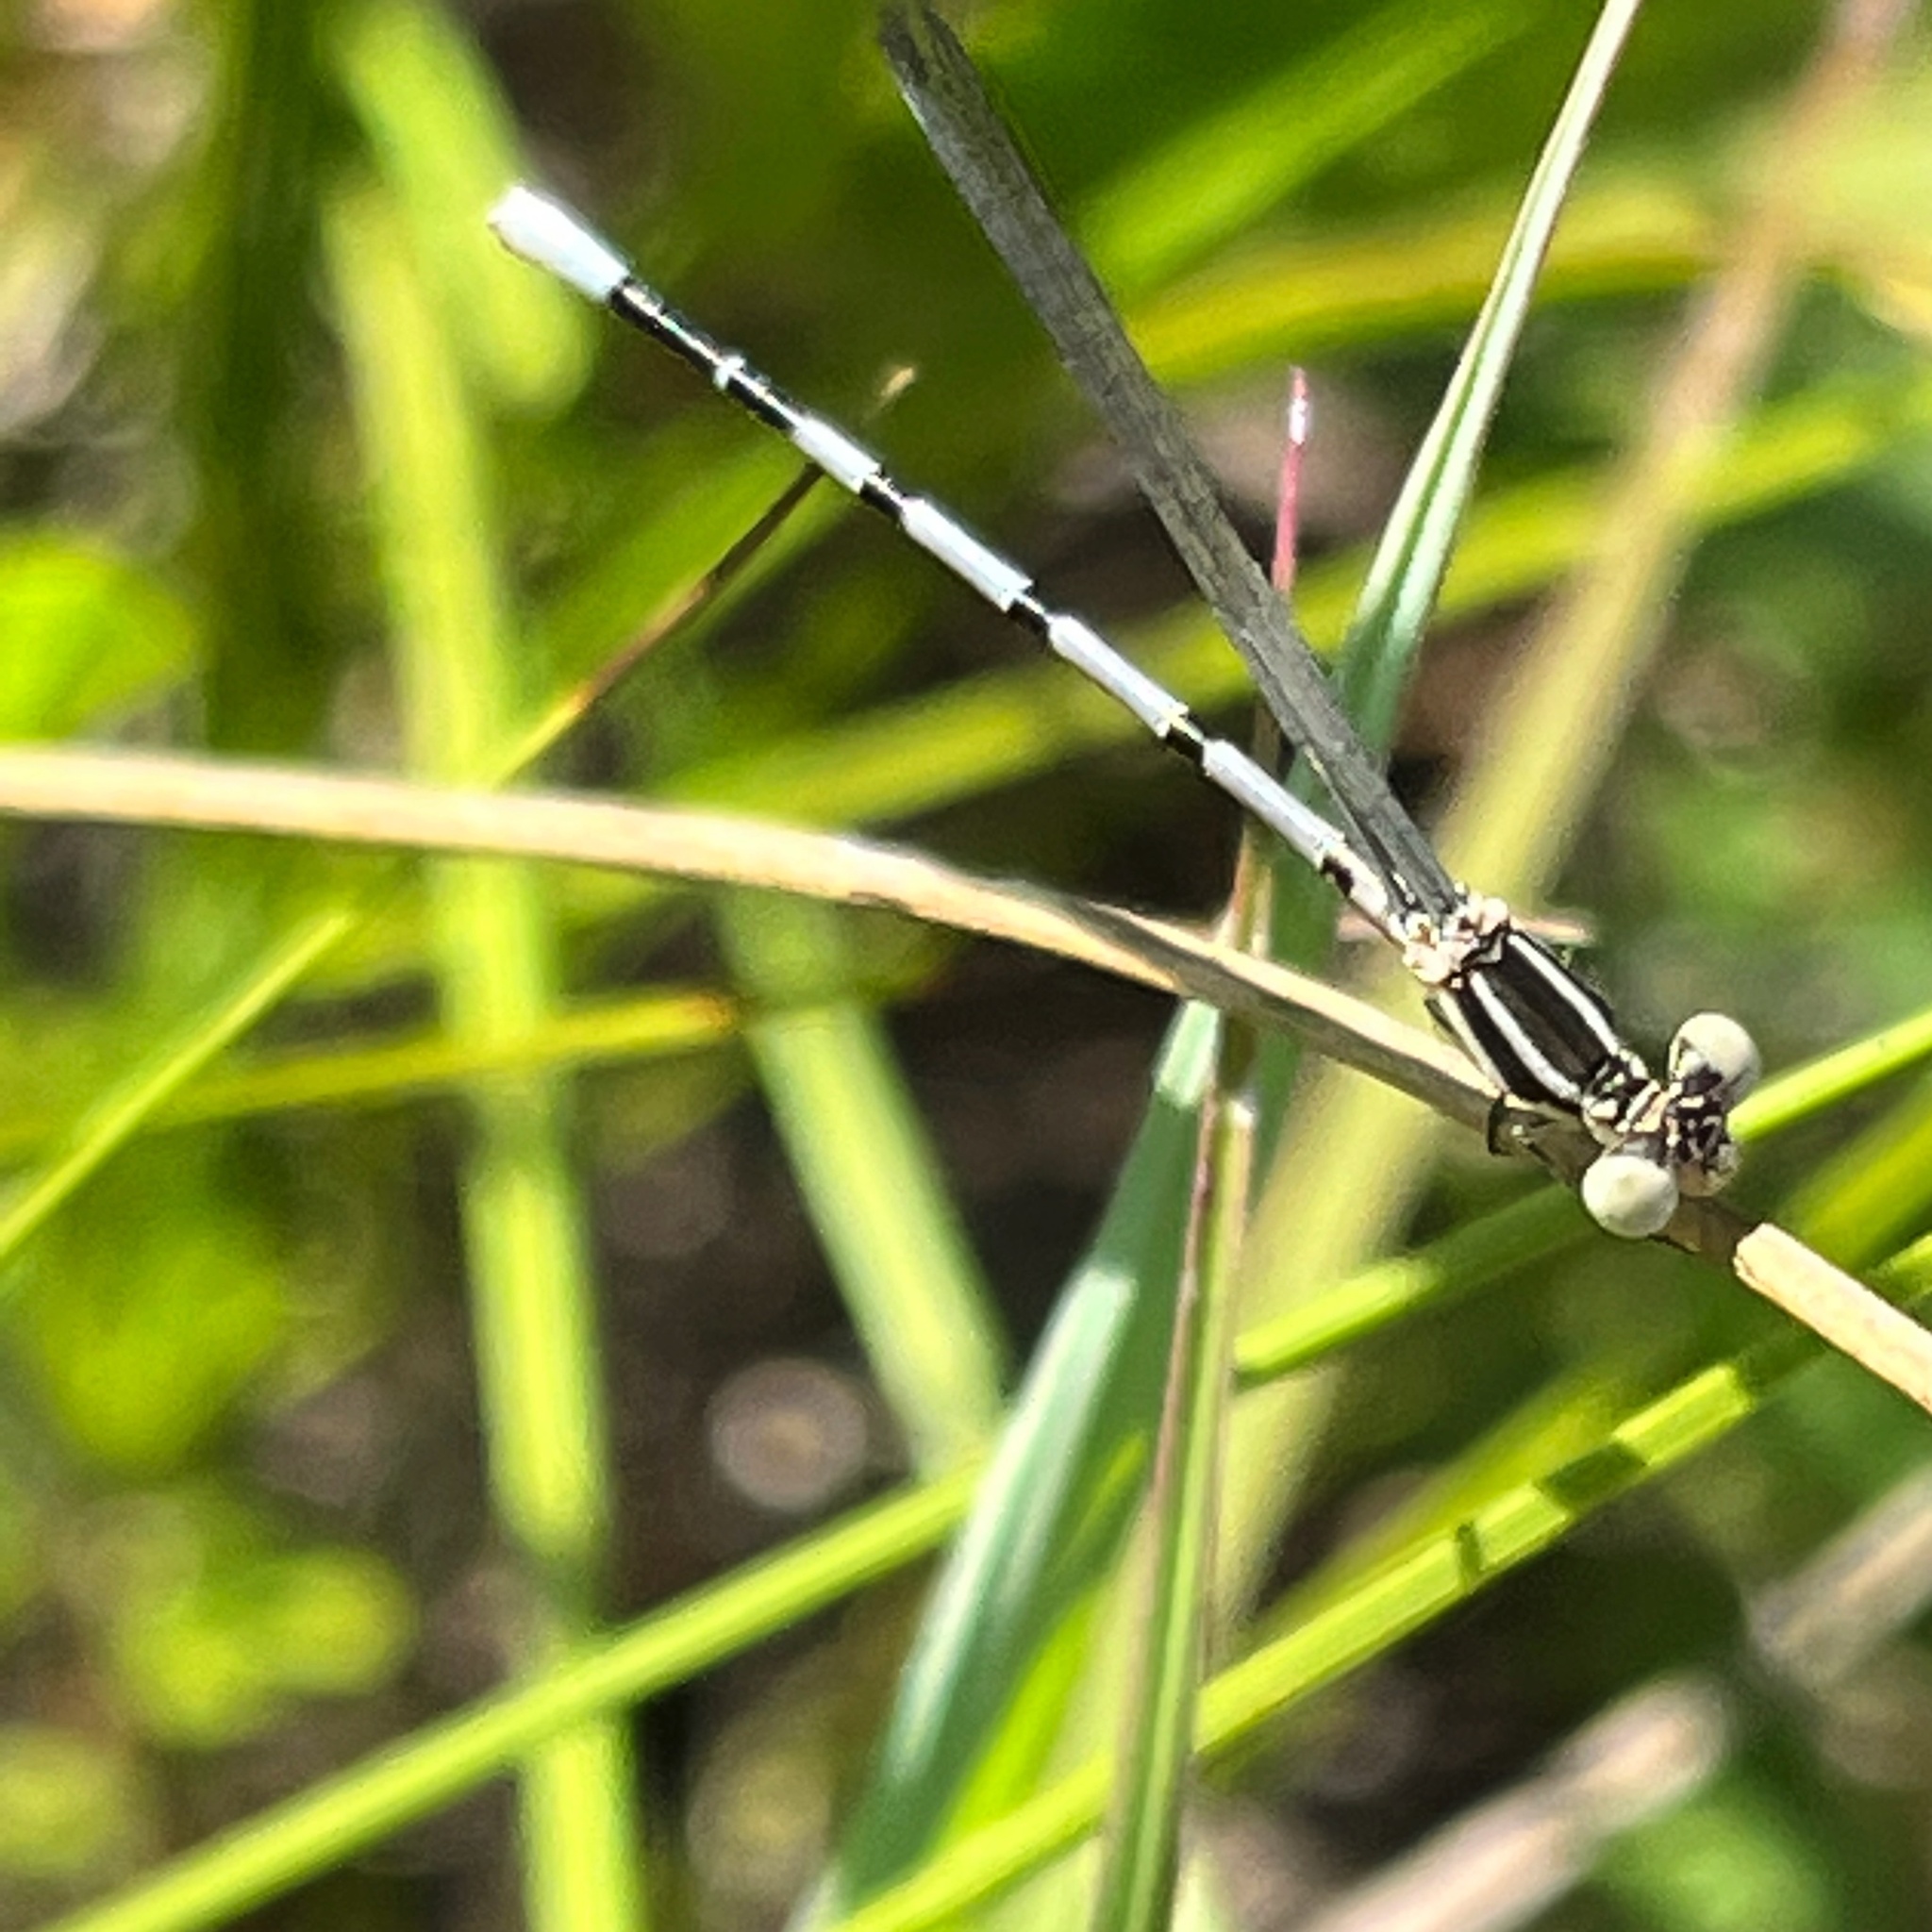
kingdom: Animalia
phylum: Arthropoda
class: Insecta
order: Odonata
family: Coenagrionidae
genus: Argia
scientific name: Argia bipunctulata
